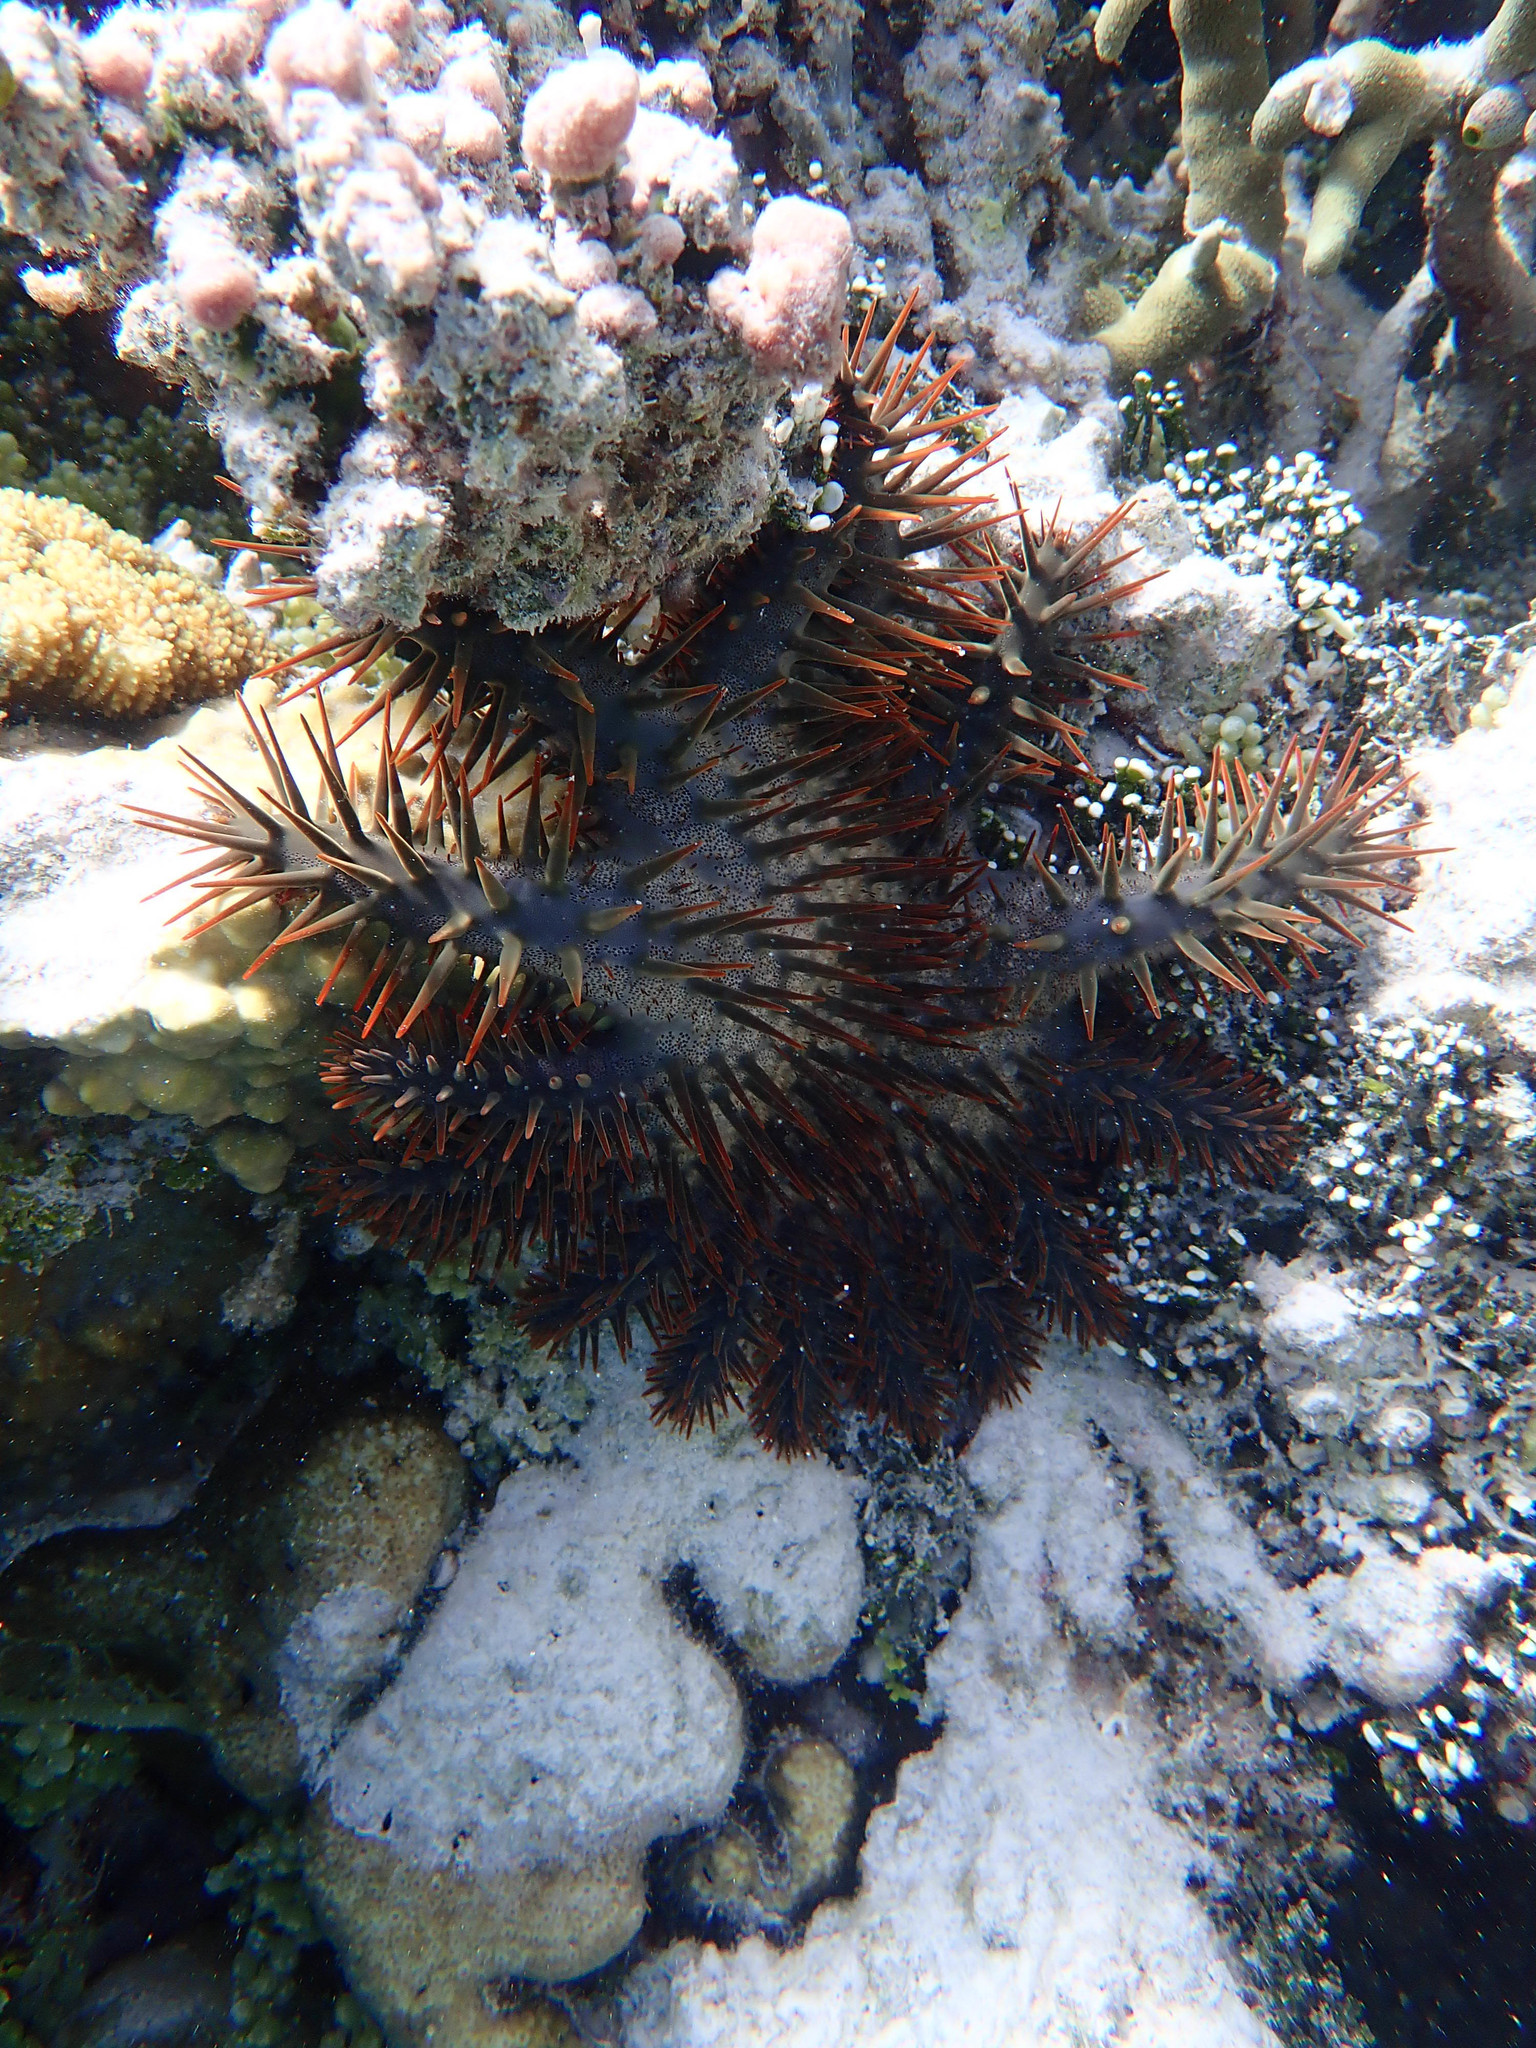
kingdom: Animalia
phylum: Echinodermata
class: Asteroidea
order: Valvatida
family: Acanthasteridae
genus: Acanthaster
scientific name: Acanthaster planci
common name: Crown-of-thorns
